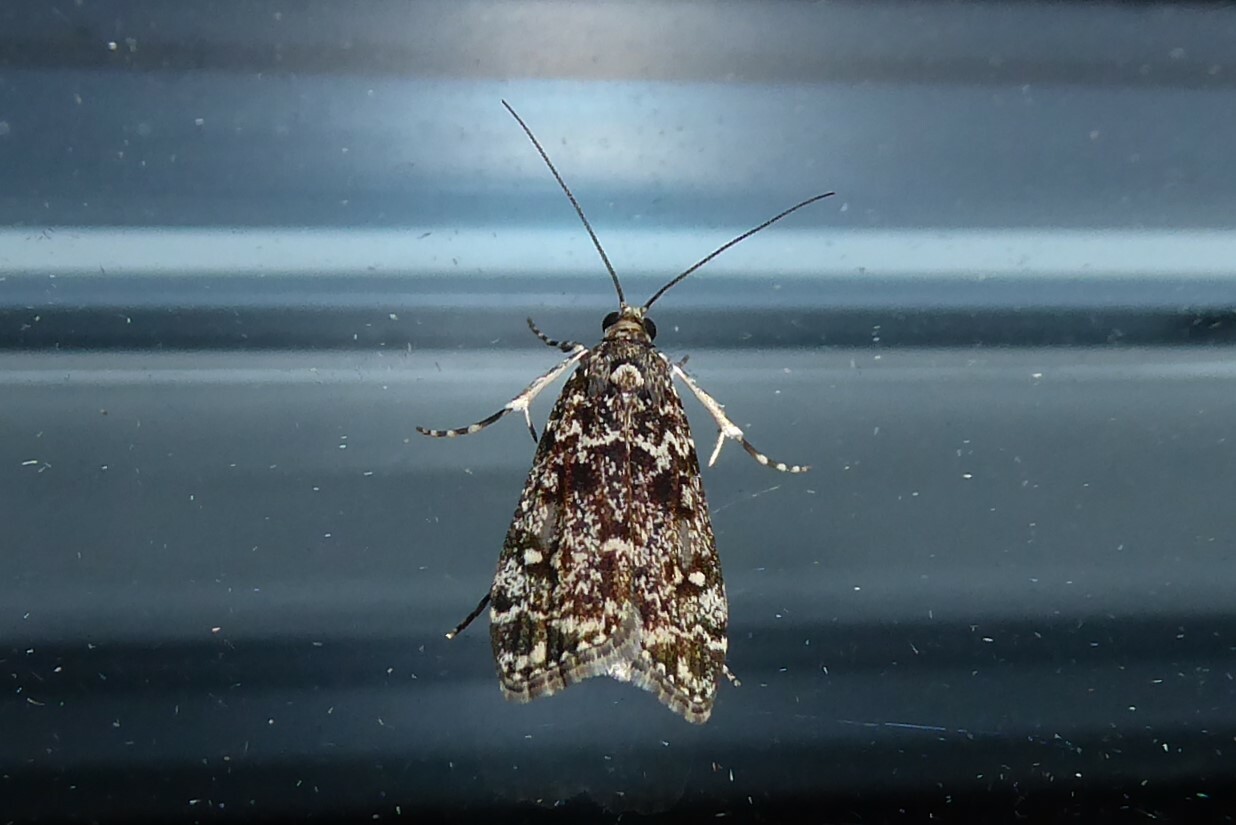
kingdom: Animalia
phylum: Arthropoda
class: Insecta
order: Lepidoptera
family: Crambidae
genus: Eudonia
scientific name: Eudonia philerga
